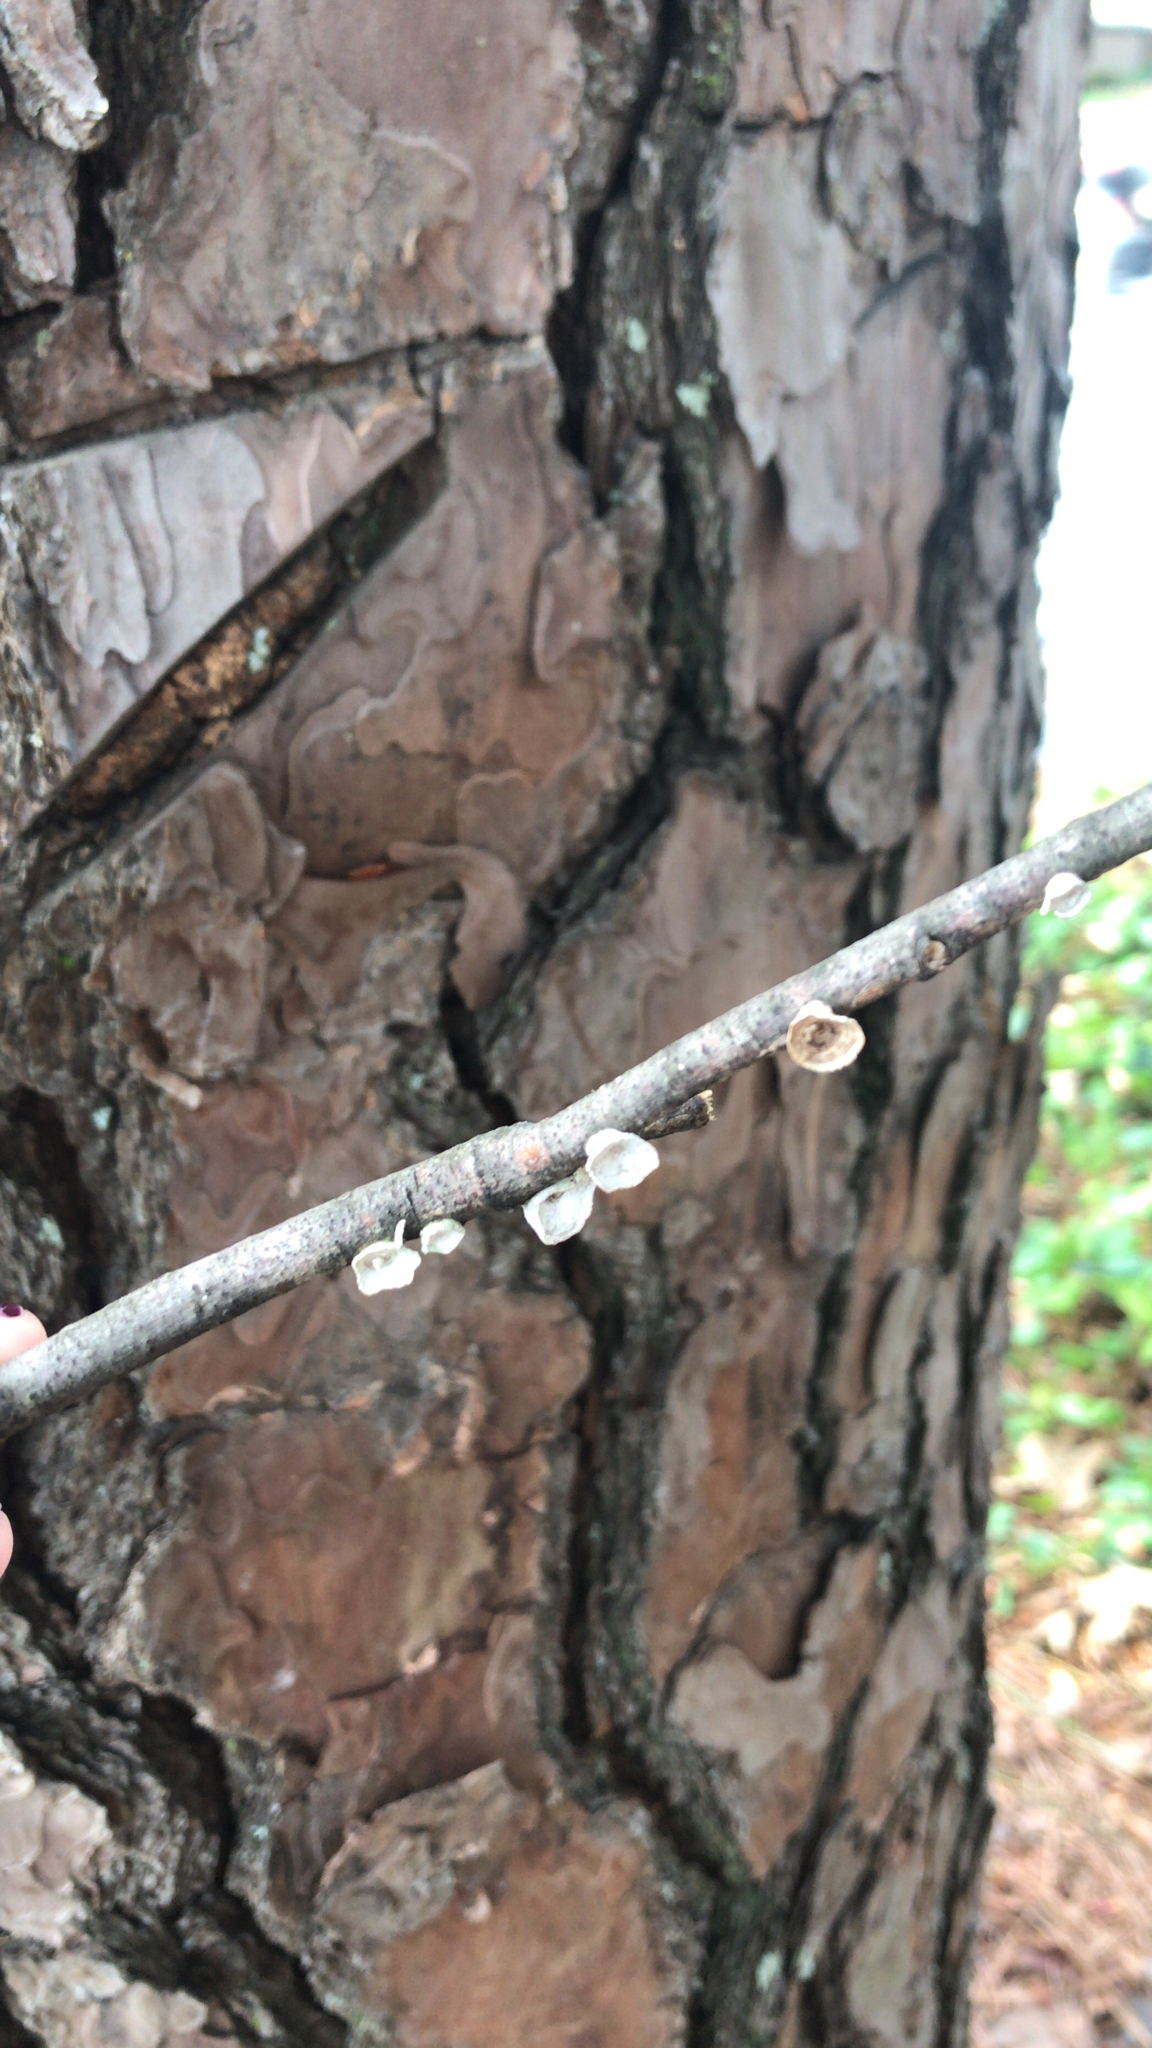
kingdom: Fungi
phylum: Basidiomycota
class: Agaricomycetes
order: Polyporales
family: Polyporaceae
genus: Poronidulus
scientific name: Poronidulus conchifer
